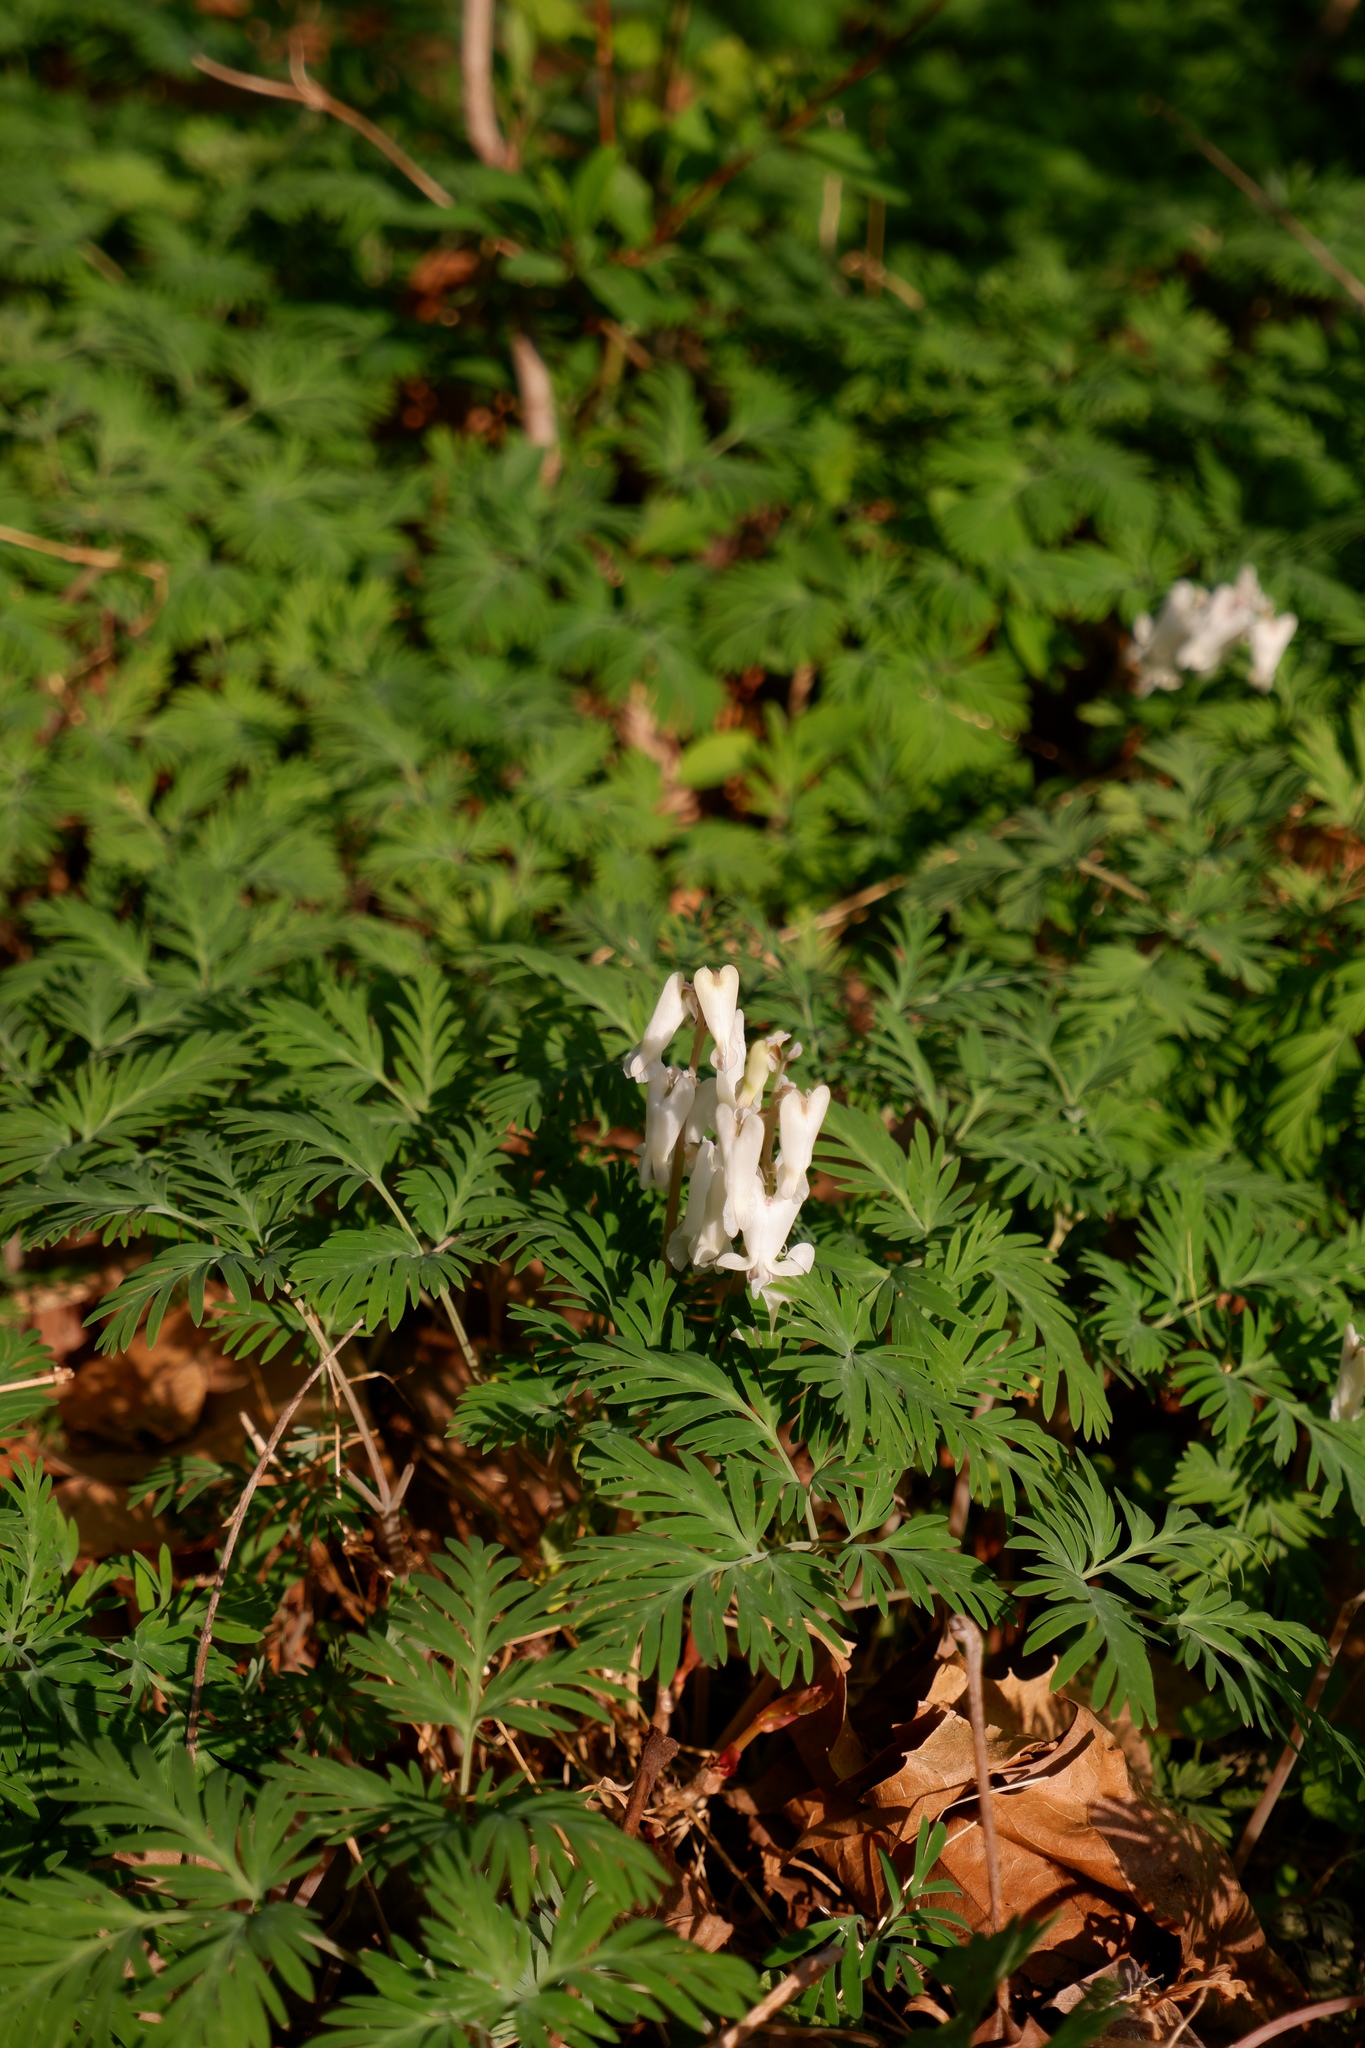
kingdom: Plantae
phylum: Tracheophyta
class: Magnoliopsida
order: Ranunculales
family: Papaveraceae
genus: Dicentra
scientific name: Dicentra canadensis
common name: Squirrel-corn
